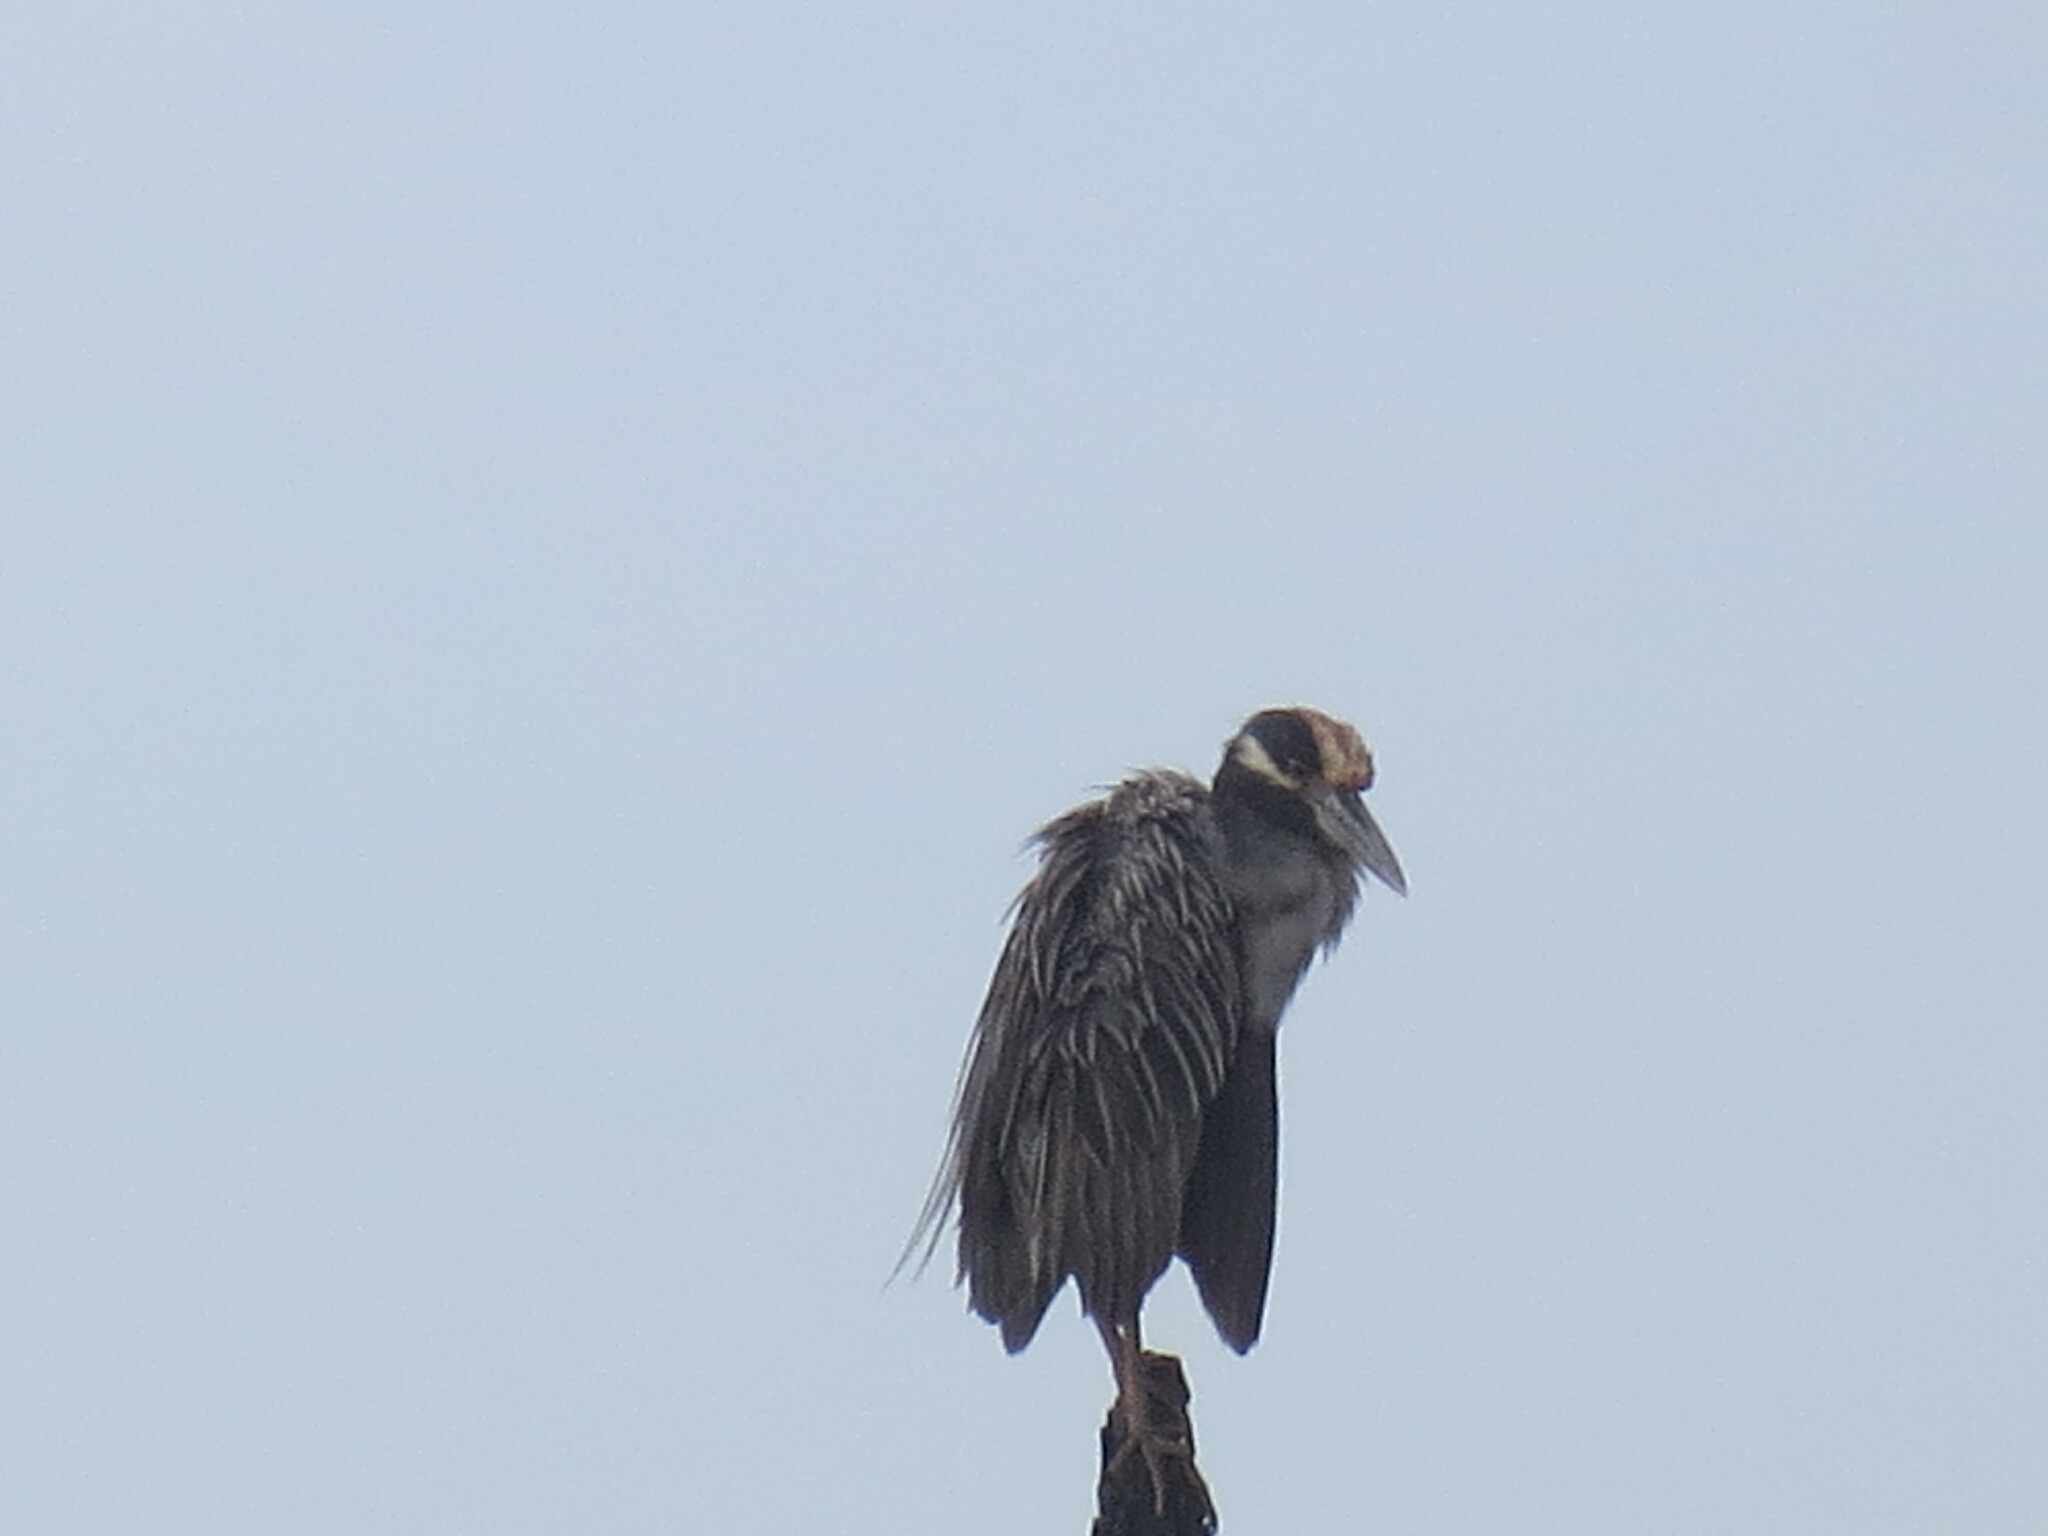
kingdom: Animalia
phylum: Chordata
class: Aves
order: Pelecaniformes
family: Ardeidae
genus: Nyctanassa
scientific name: Nyctanassa violacea
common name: Yellow-crowned night heron
